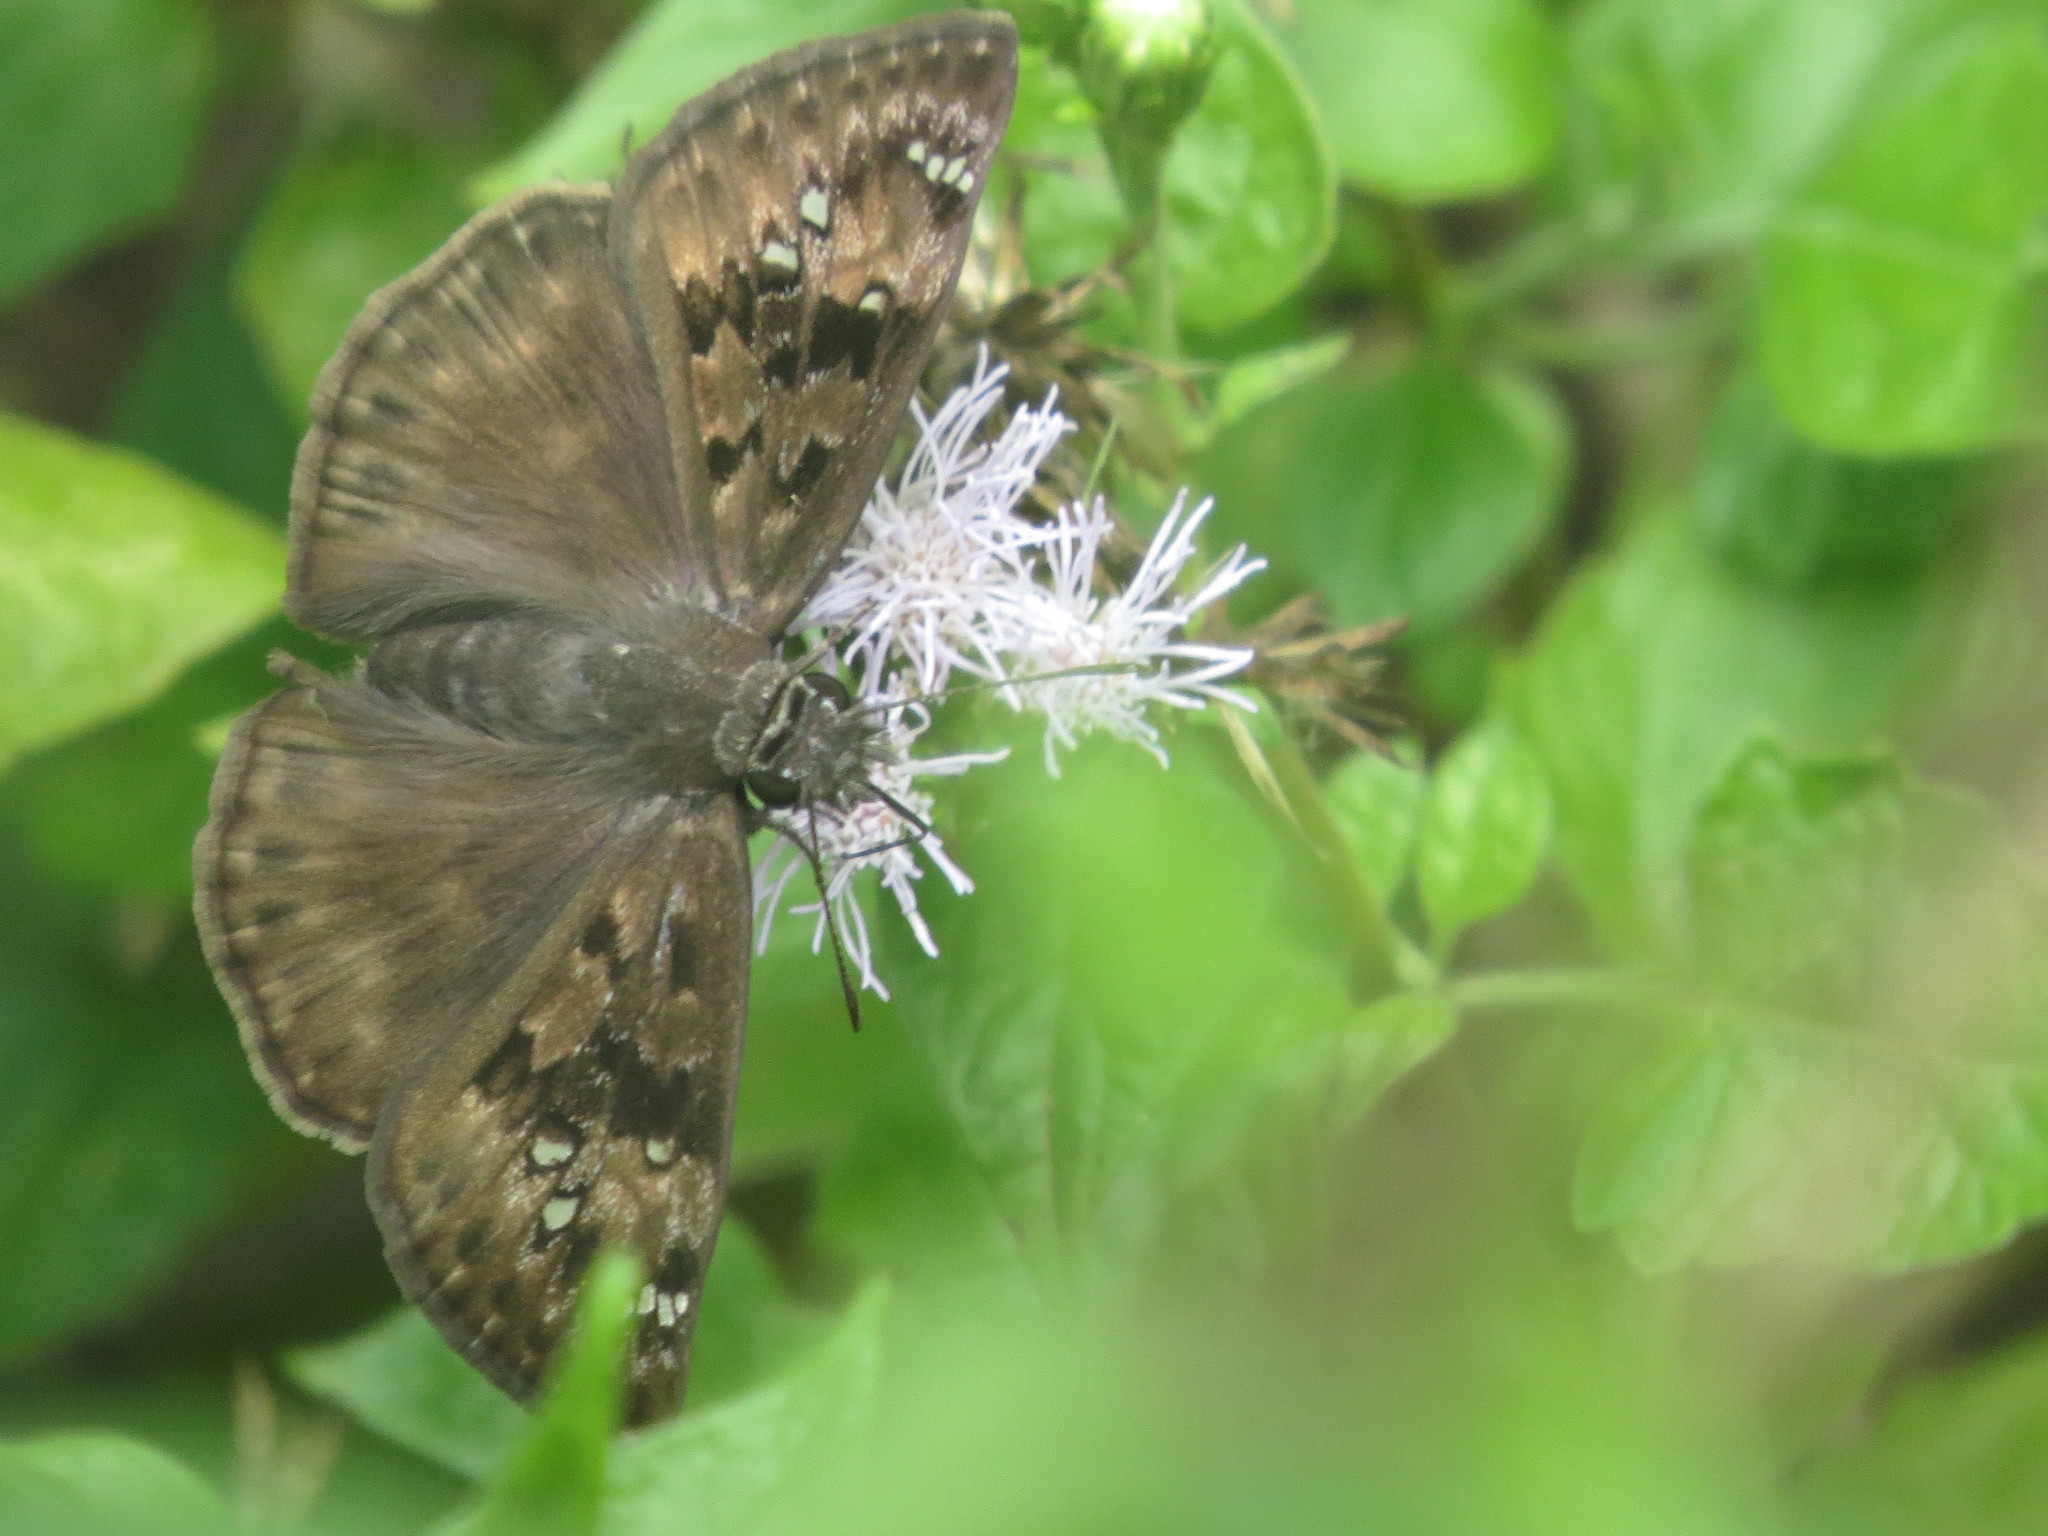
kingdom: Animalia
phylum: Arthropoda
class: Insecta
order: Lepidoptera
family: Hesperiidae
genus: Erynnis
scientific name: Erynnis horatius
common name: Horace's duskywing
